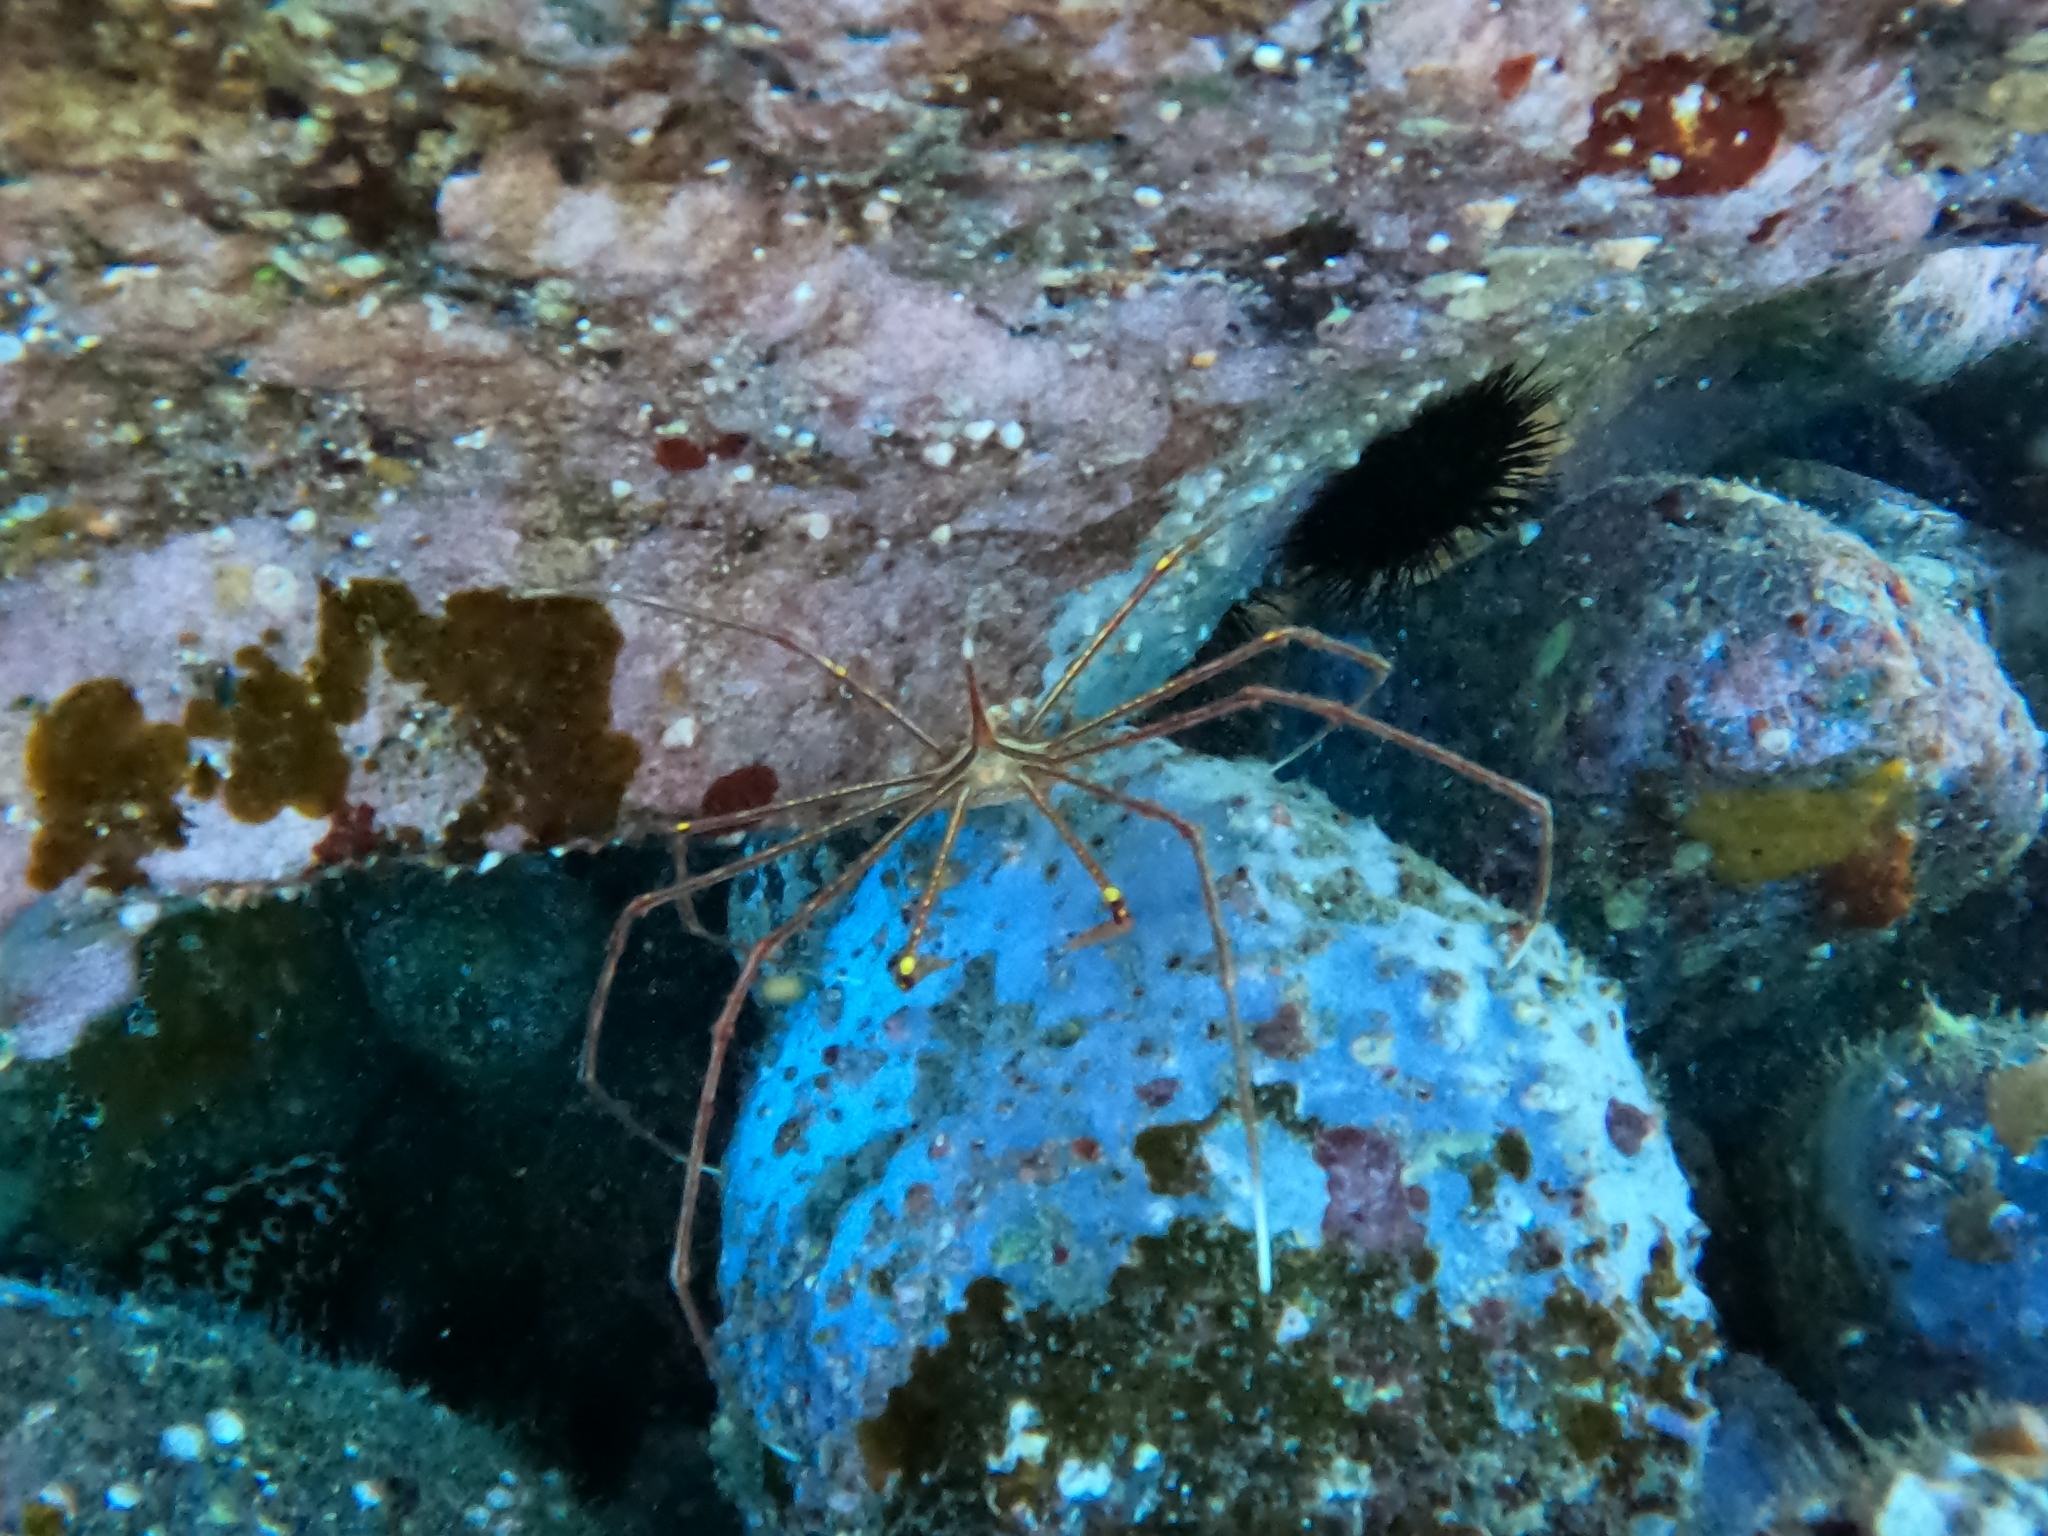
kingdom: Animalia
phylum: Arthropoda
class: Malacostraca
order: Decapoda
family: Inachoididae
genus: Stenorhynchus
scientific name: Stenorhynchus lanceolatus
